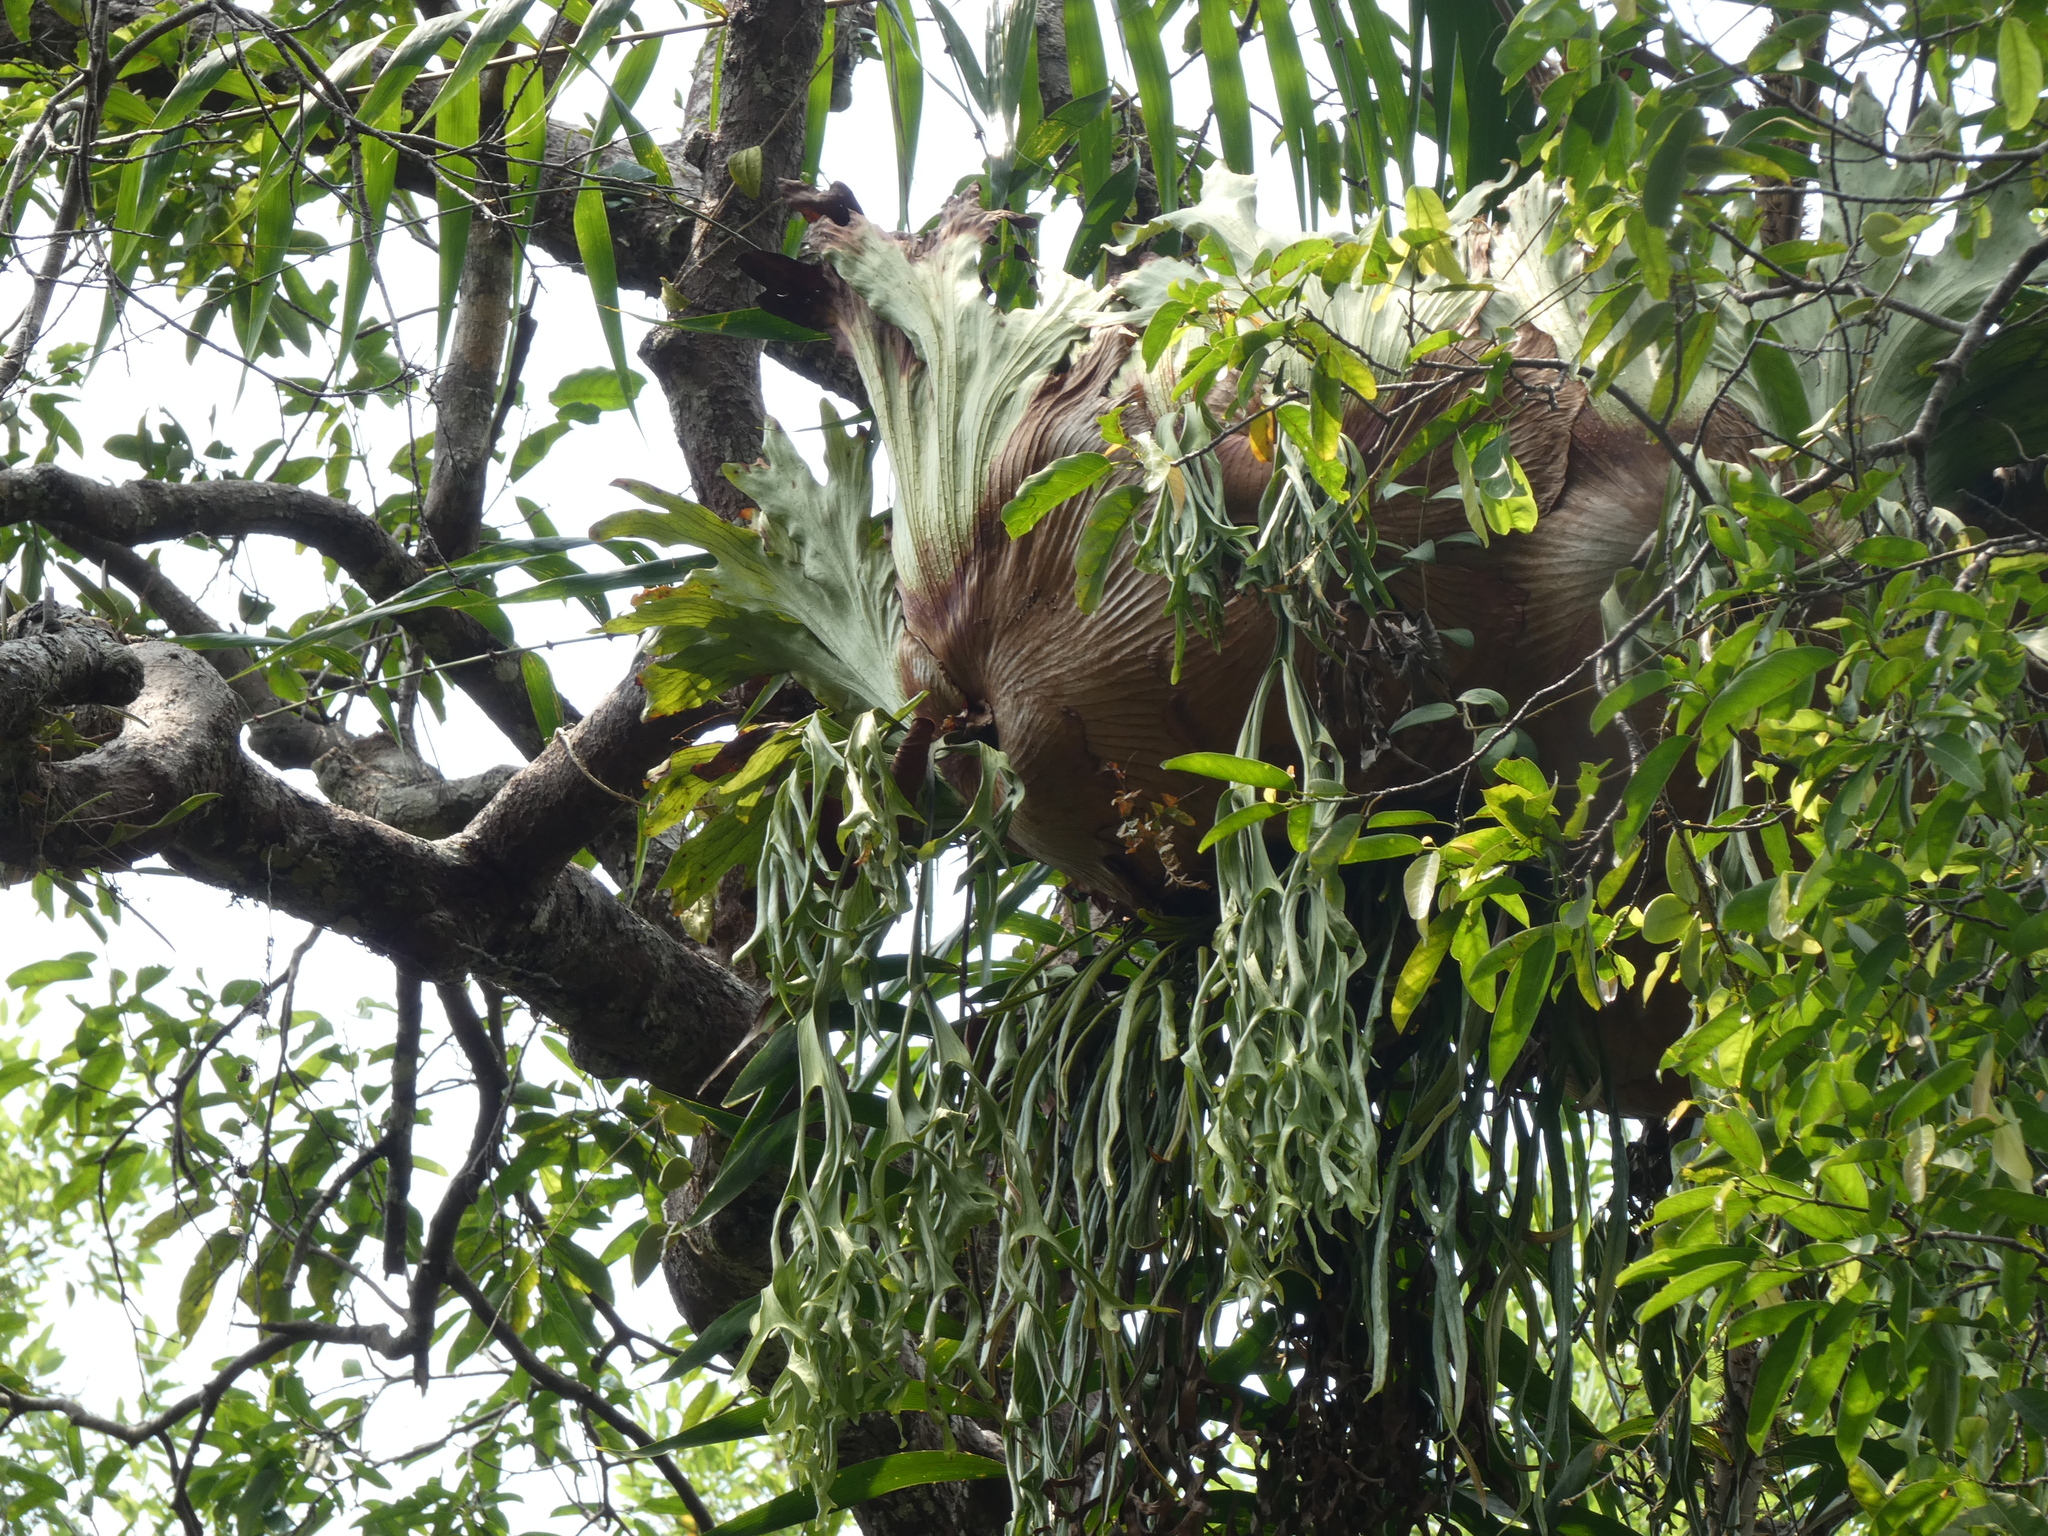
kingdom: Plantae
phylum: Tracheophyta
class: Polypodiopsida
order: Polypodiales
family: Polypodiaceae
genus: Platycerium
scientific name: Platycerium coronarium
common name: Elkhorn fern
